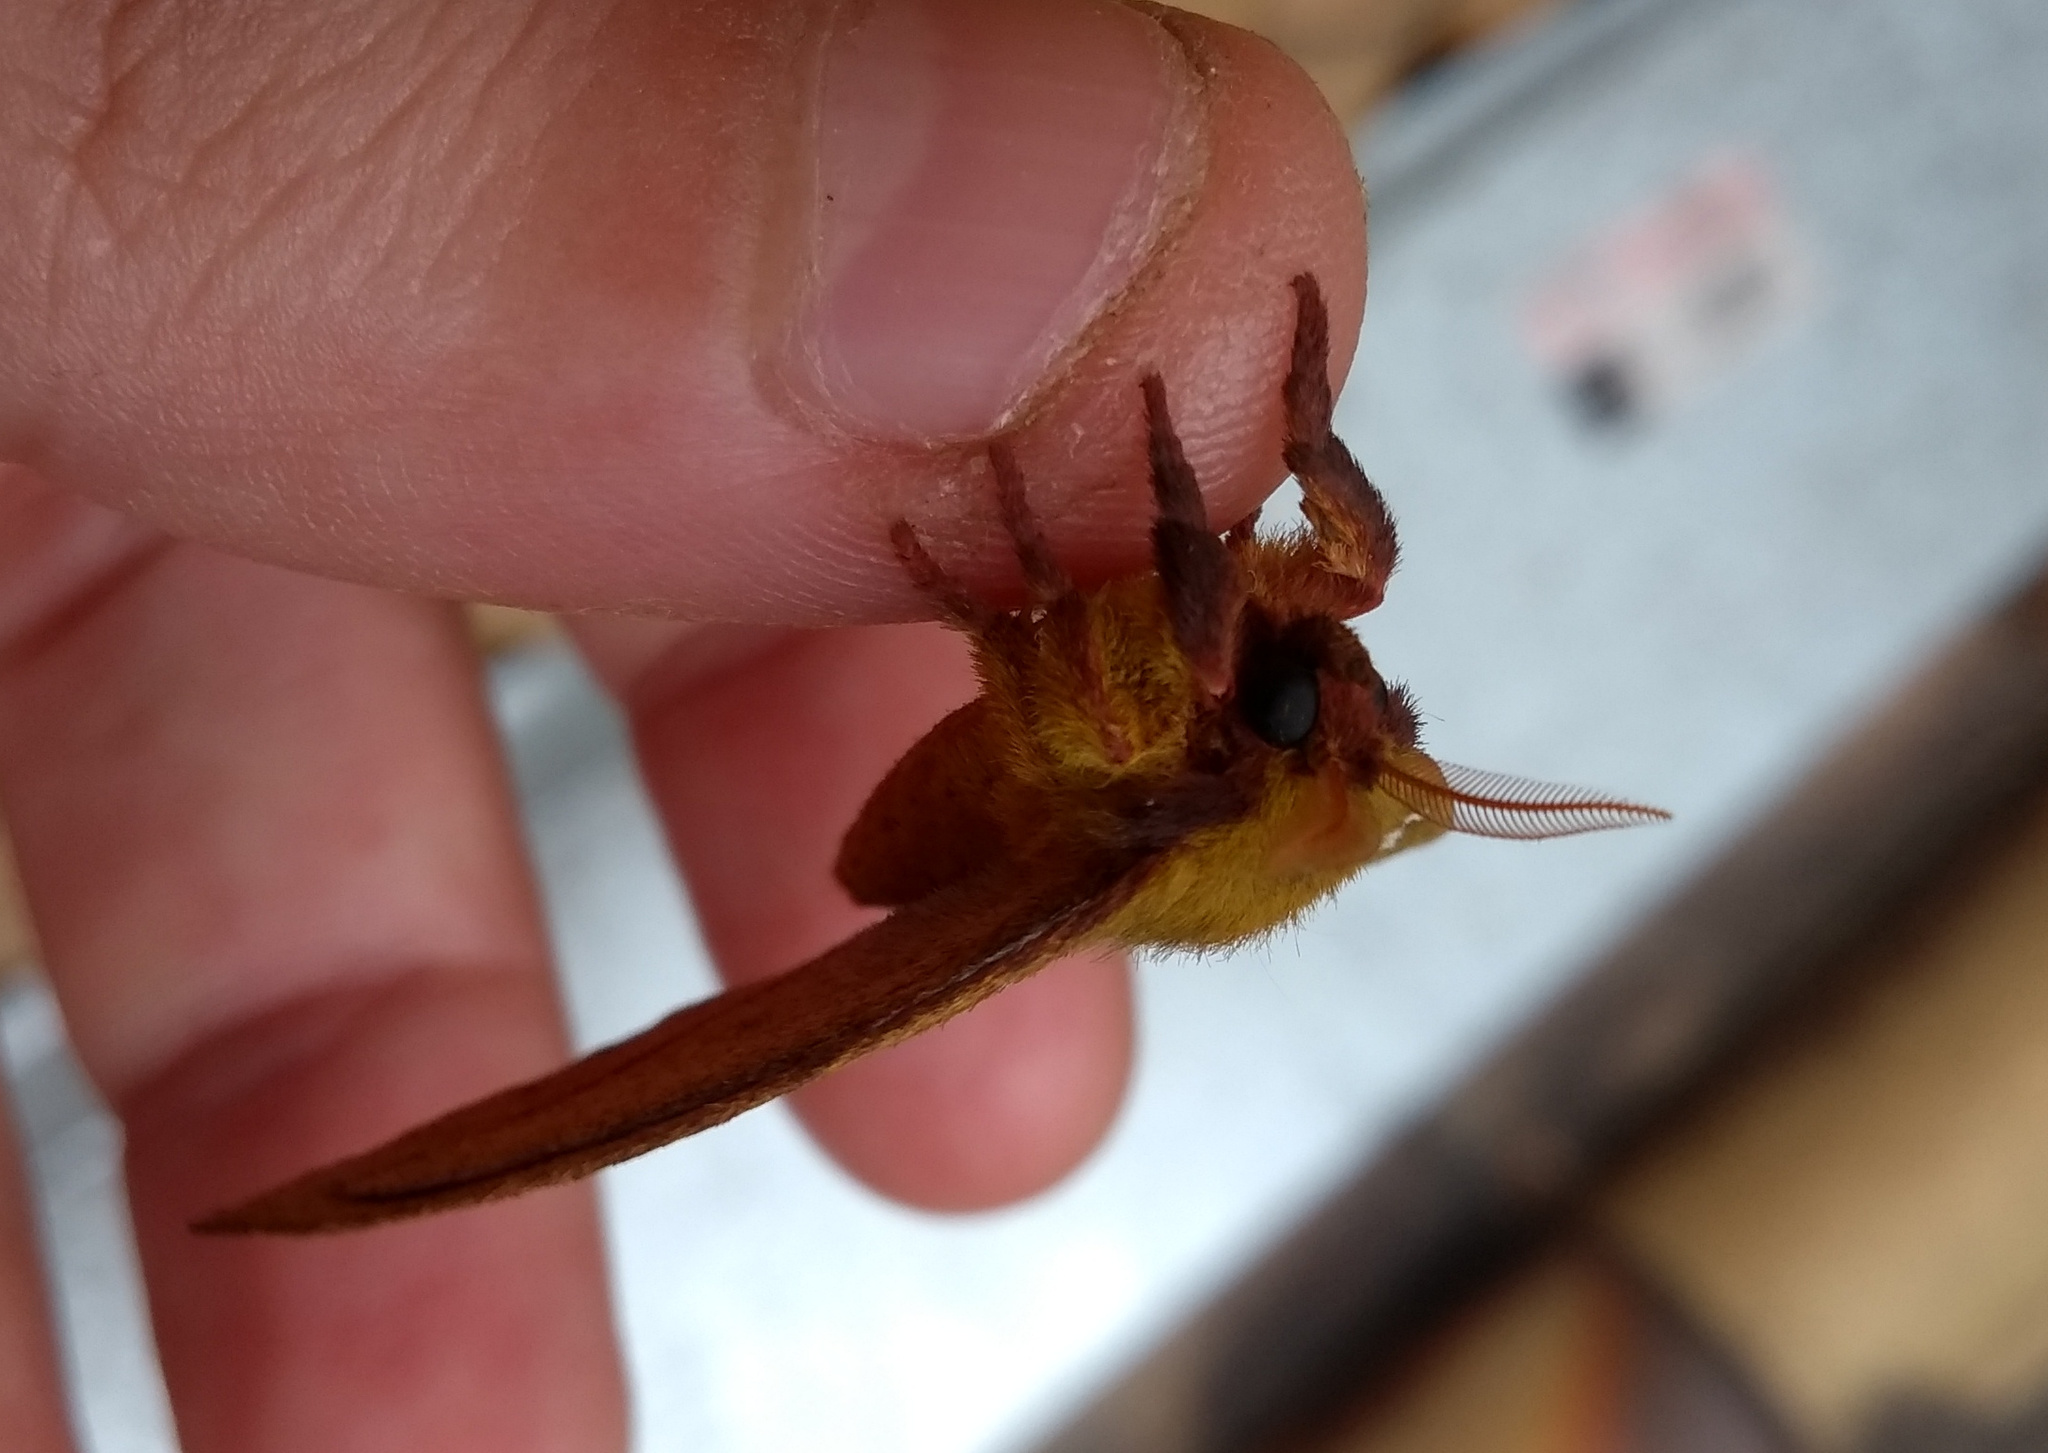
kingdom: Animalia
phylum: Arthropoda
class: Insecta
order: Lepidoptera
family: Saturniidae
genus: Catacantha
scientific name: Catacantha ferruginea
